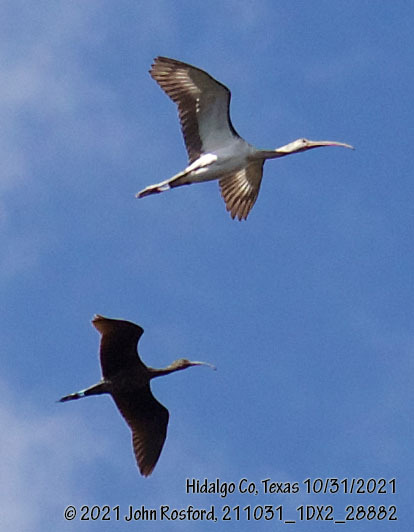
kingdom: Animalia
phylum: Chordata
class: Aves
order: Pelecaniformes
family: Threskiornithidae
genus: Eudocimus
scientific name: Eudocimus albus
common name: White ibis
